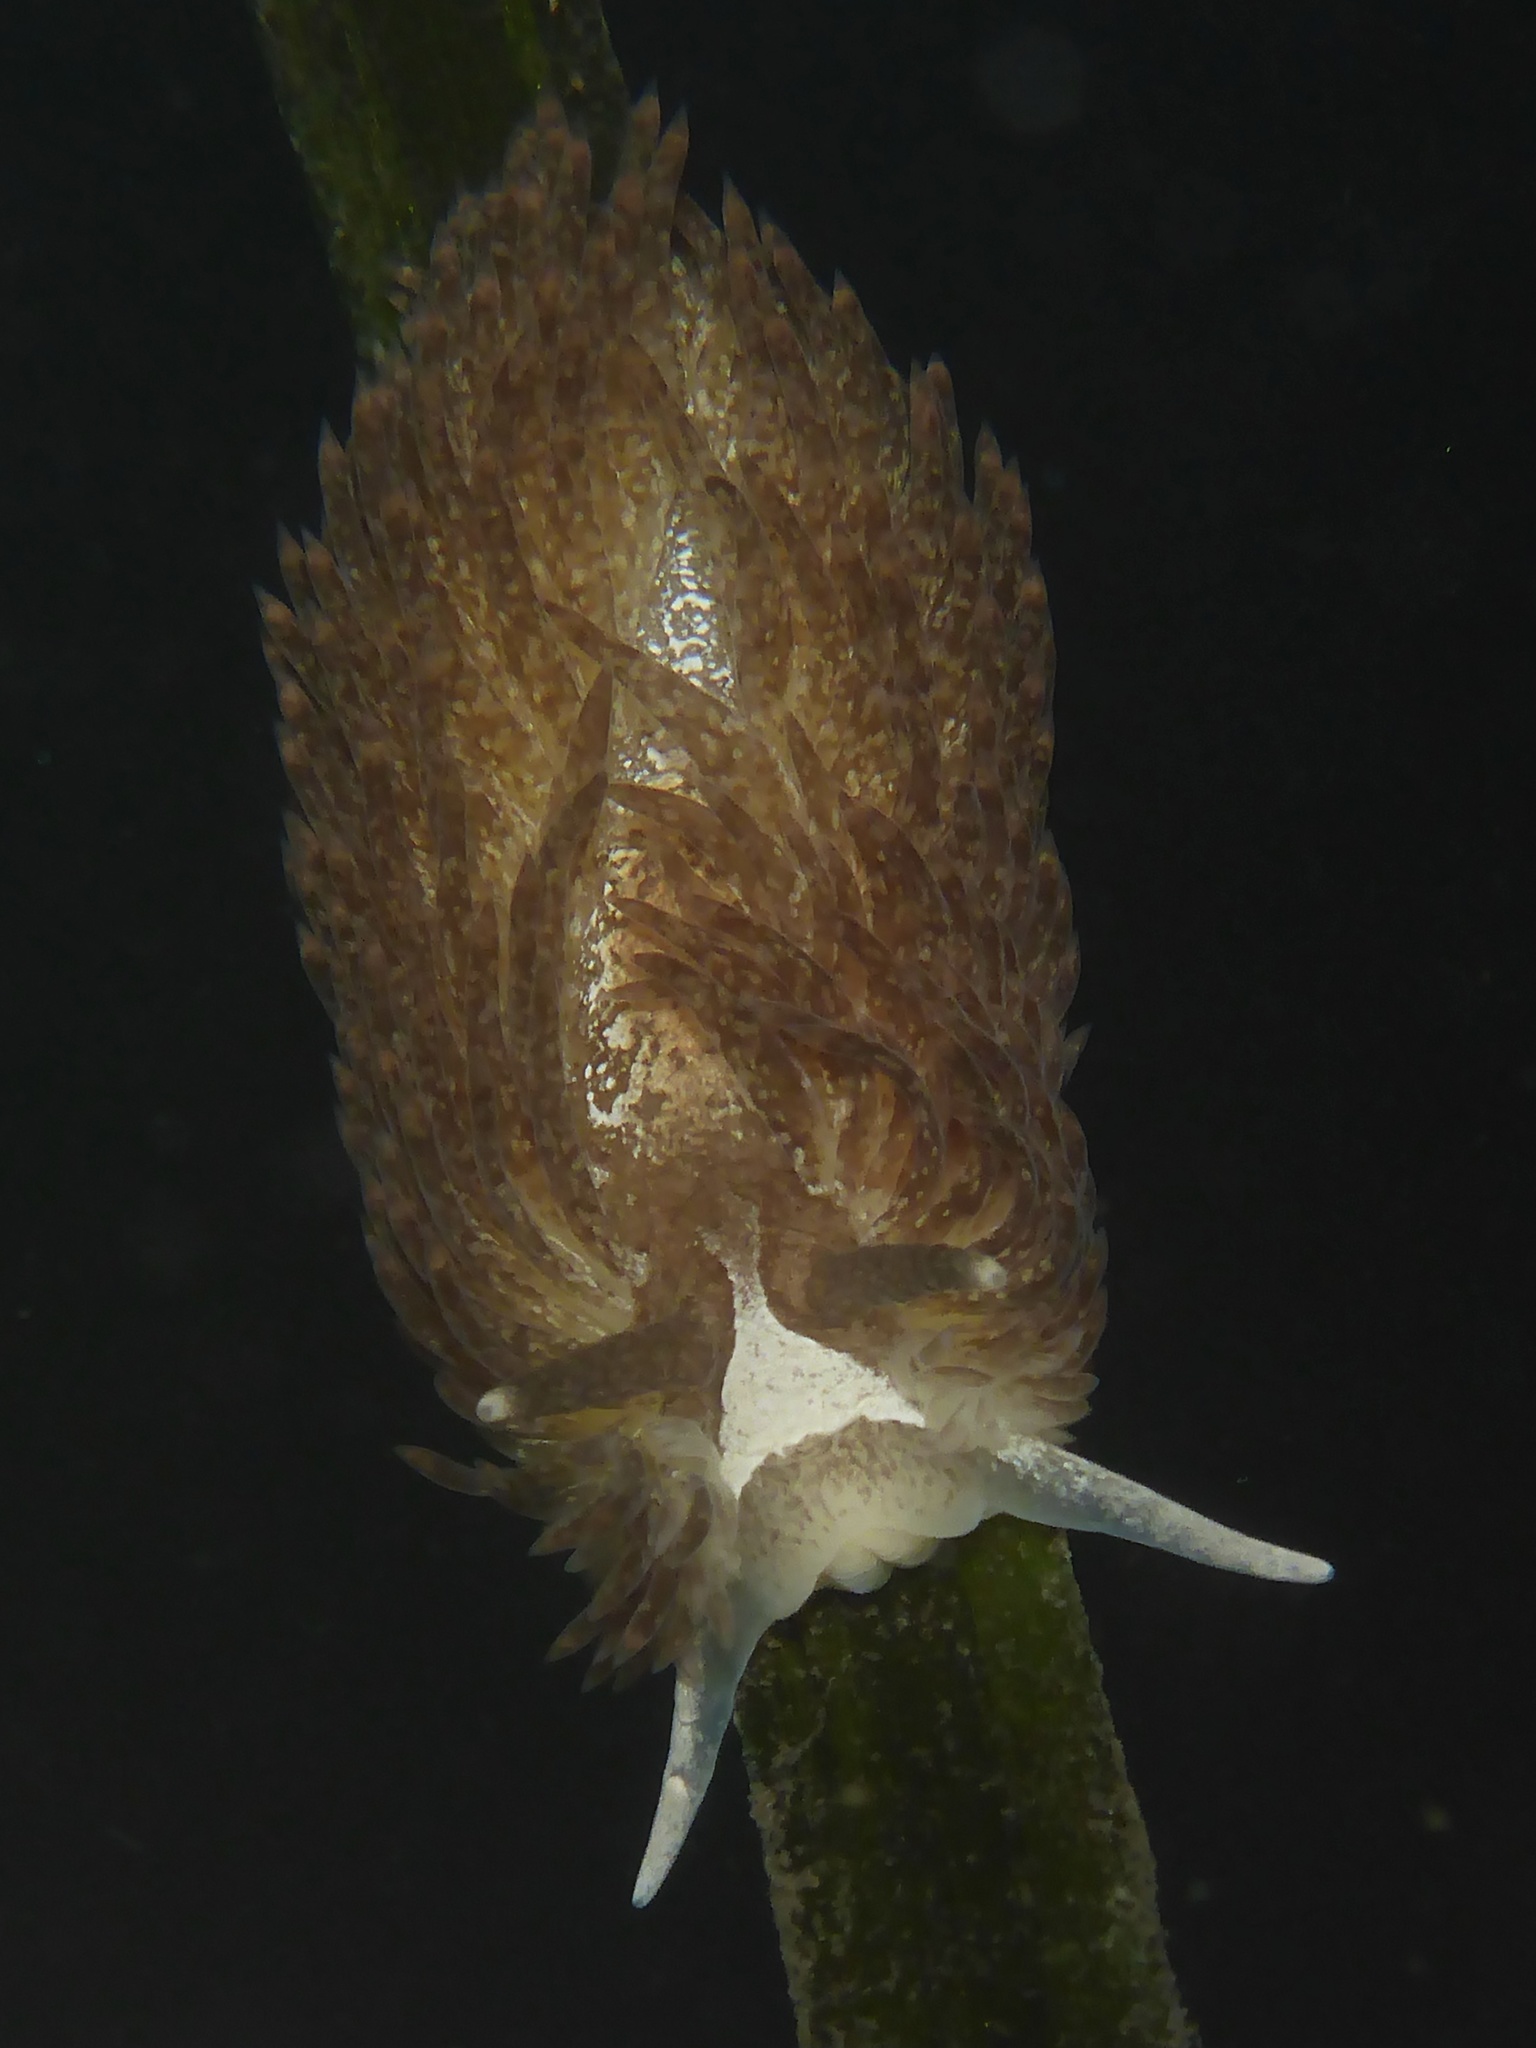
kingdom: Animalia
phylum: Mollusca
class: Gastropoda
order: Nudibranchia
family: Aeolidiidae
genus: Aeolidia
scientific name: Aeolidia loui
